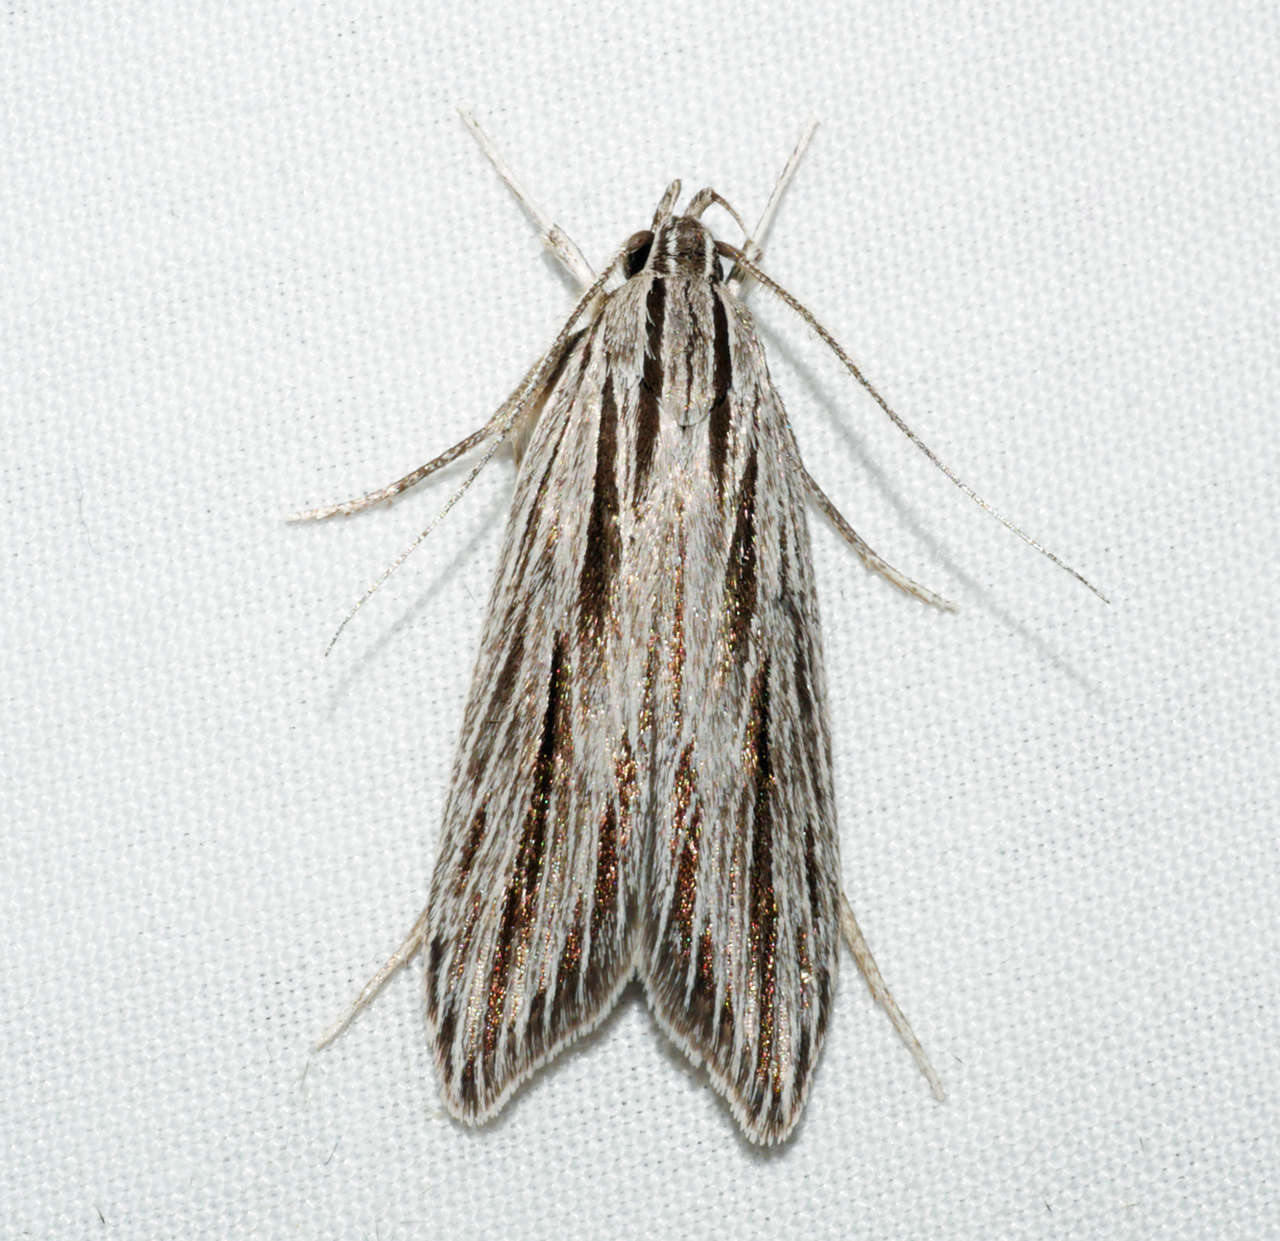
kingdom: Animalia
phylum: Arthropoda
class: Insecta
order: Lepidoptera
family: Xyloryctidae
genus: Leistarcha
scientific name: Leistarcha scitissimella
